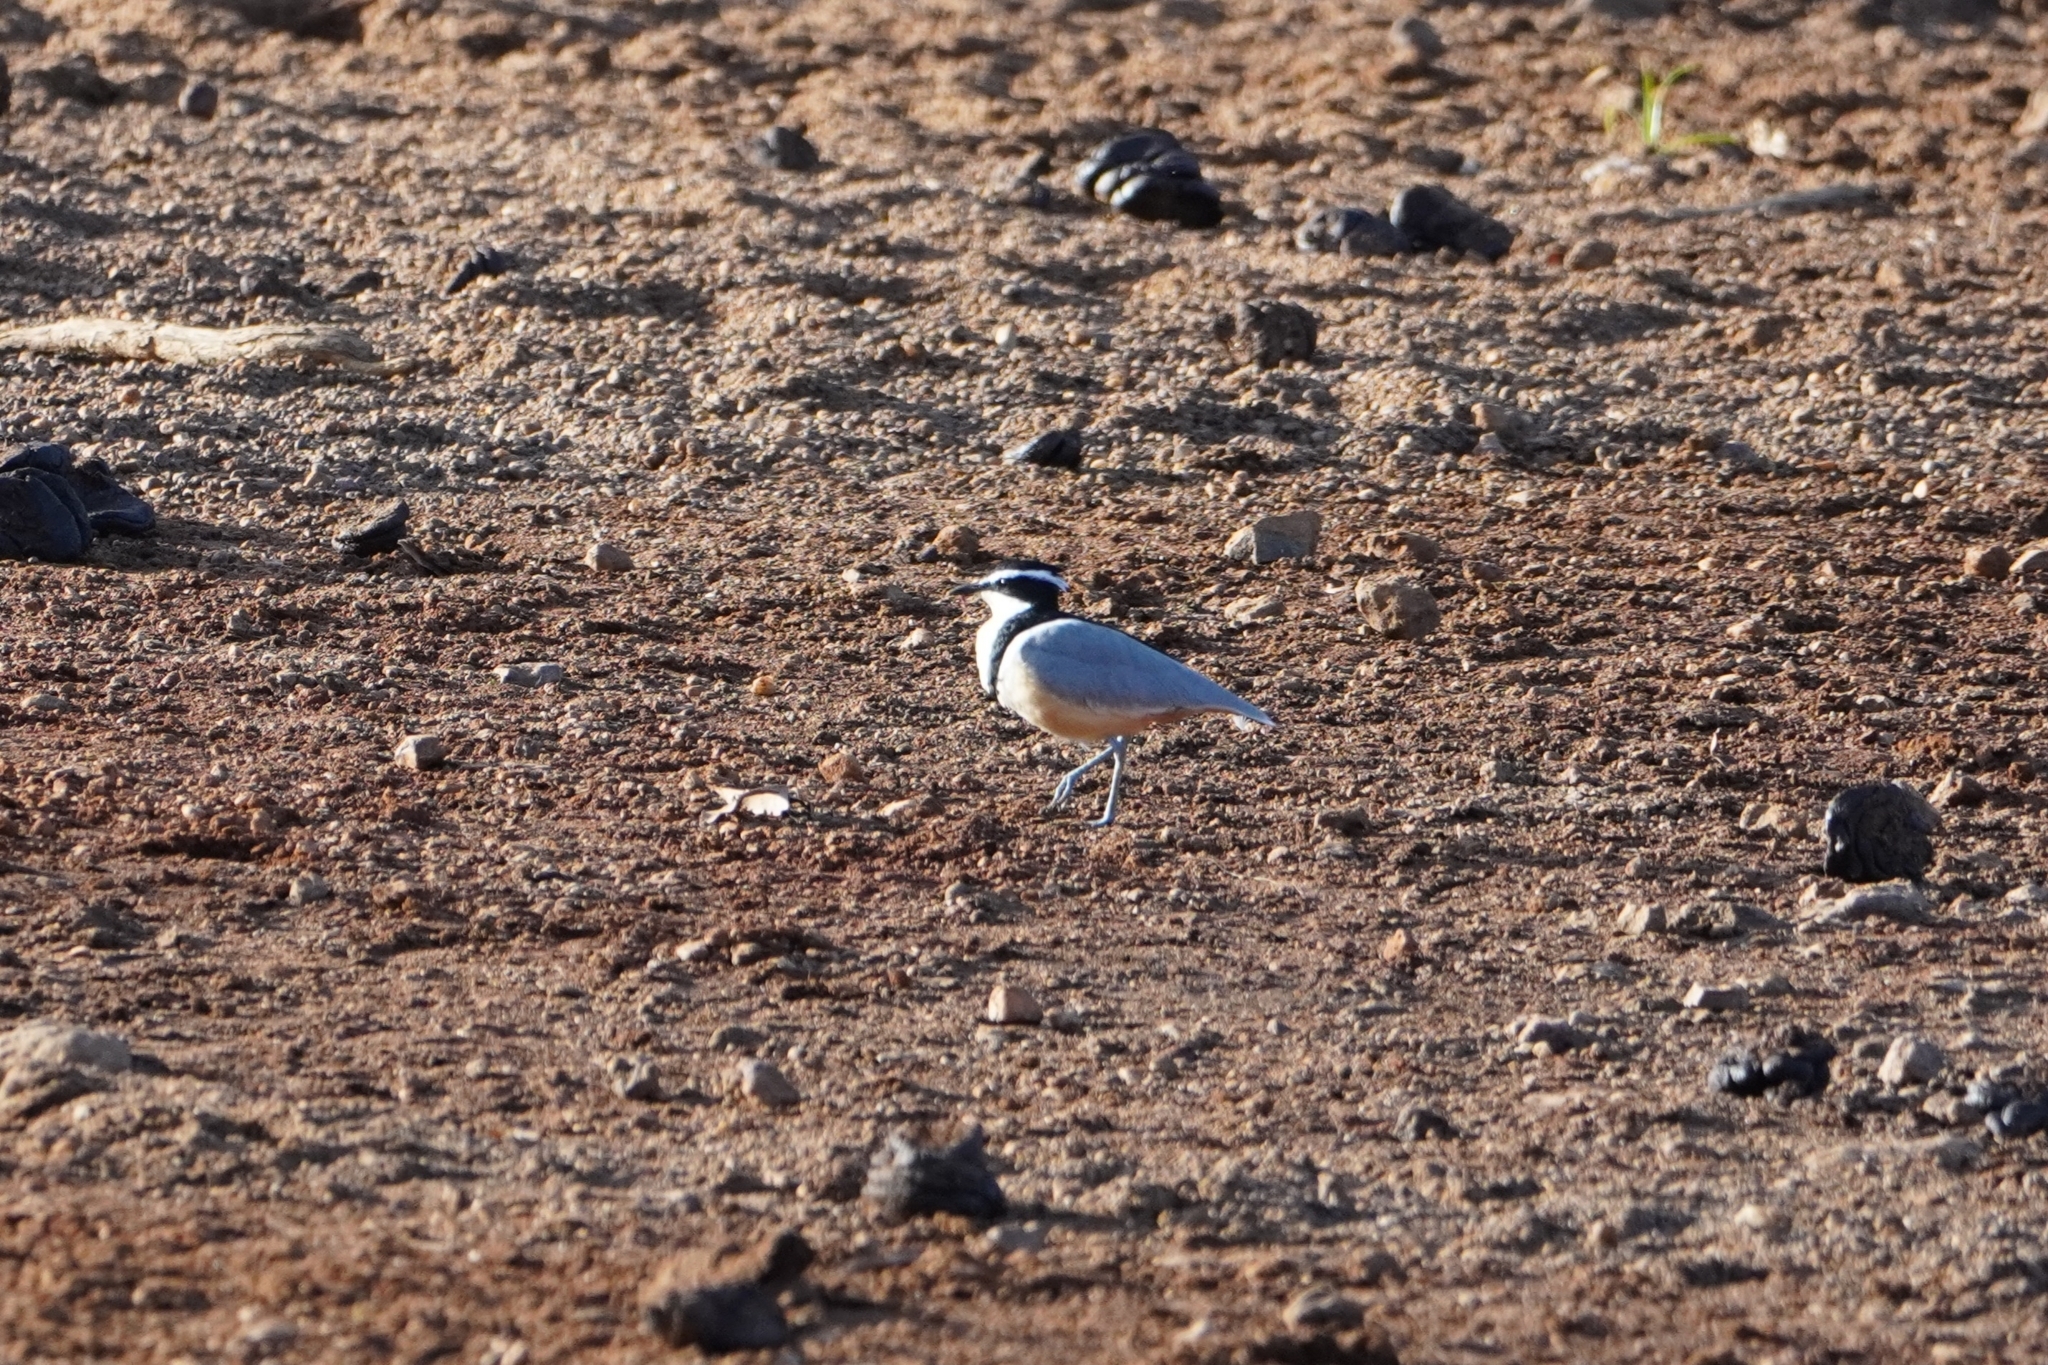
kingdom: Animalia
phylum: Chordata
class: Aves
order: Charadriiformes
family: Pluvianidae
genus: Pluvianus
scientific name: Pluvianus aegyptius
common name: Egyptian plover
